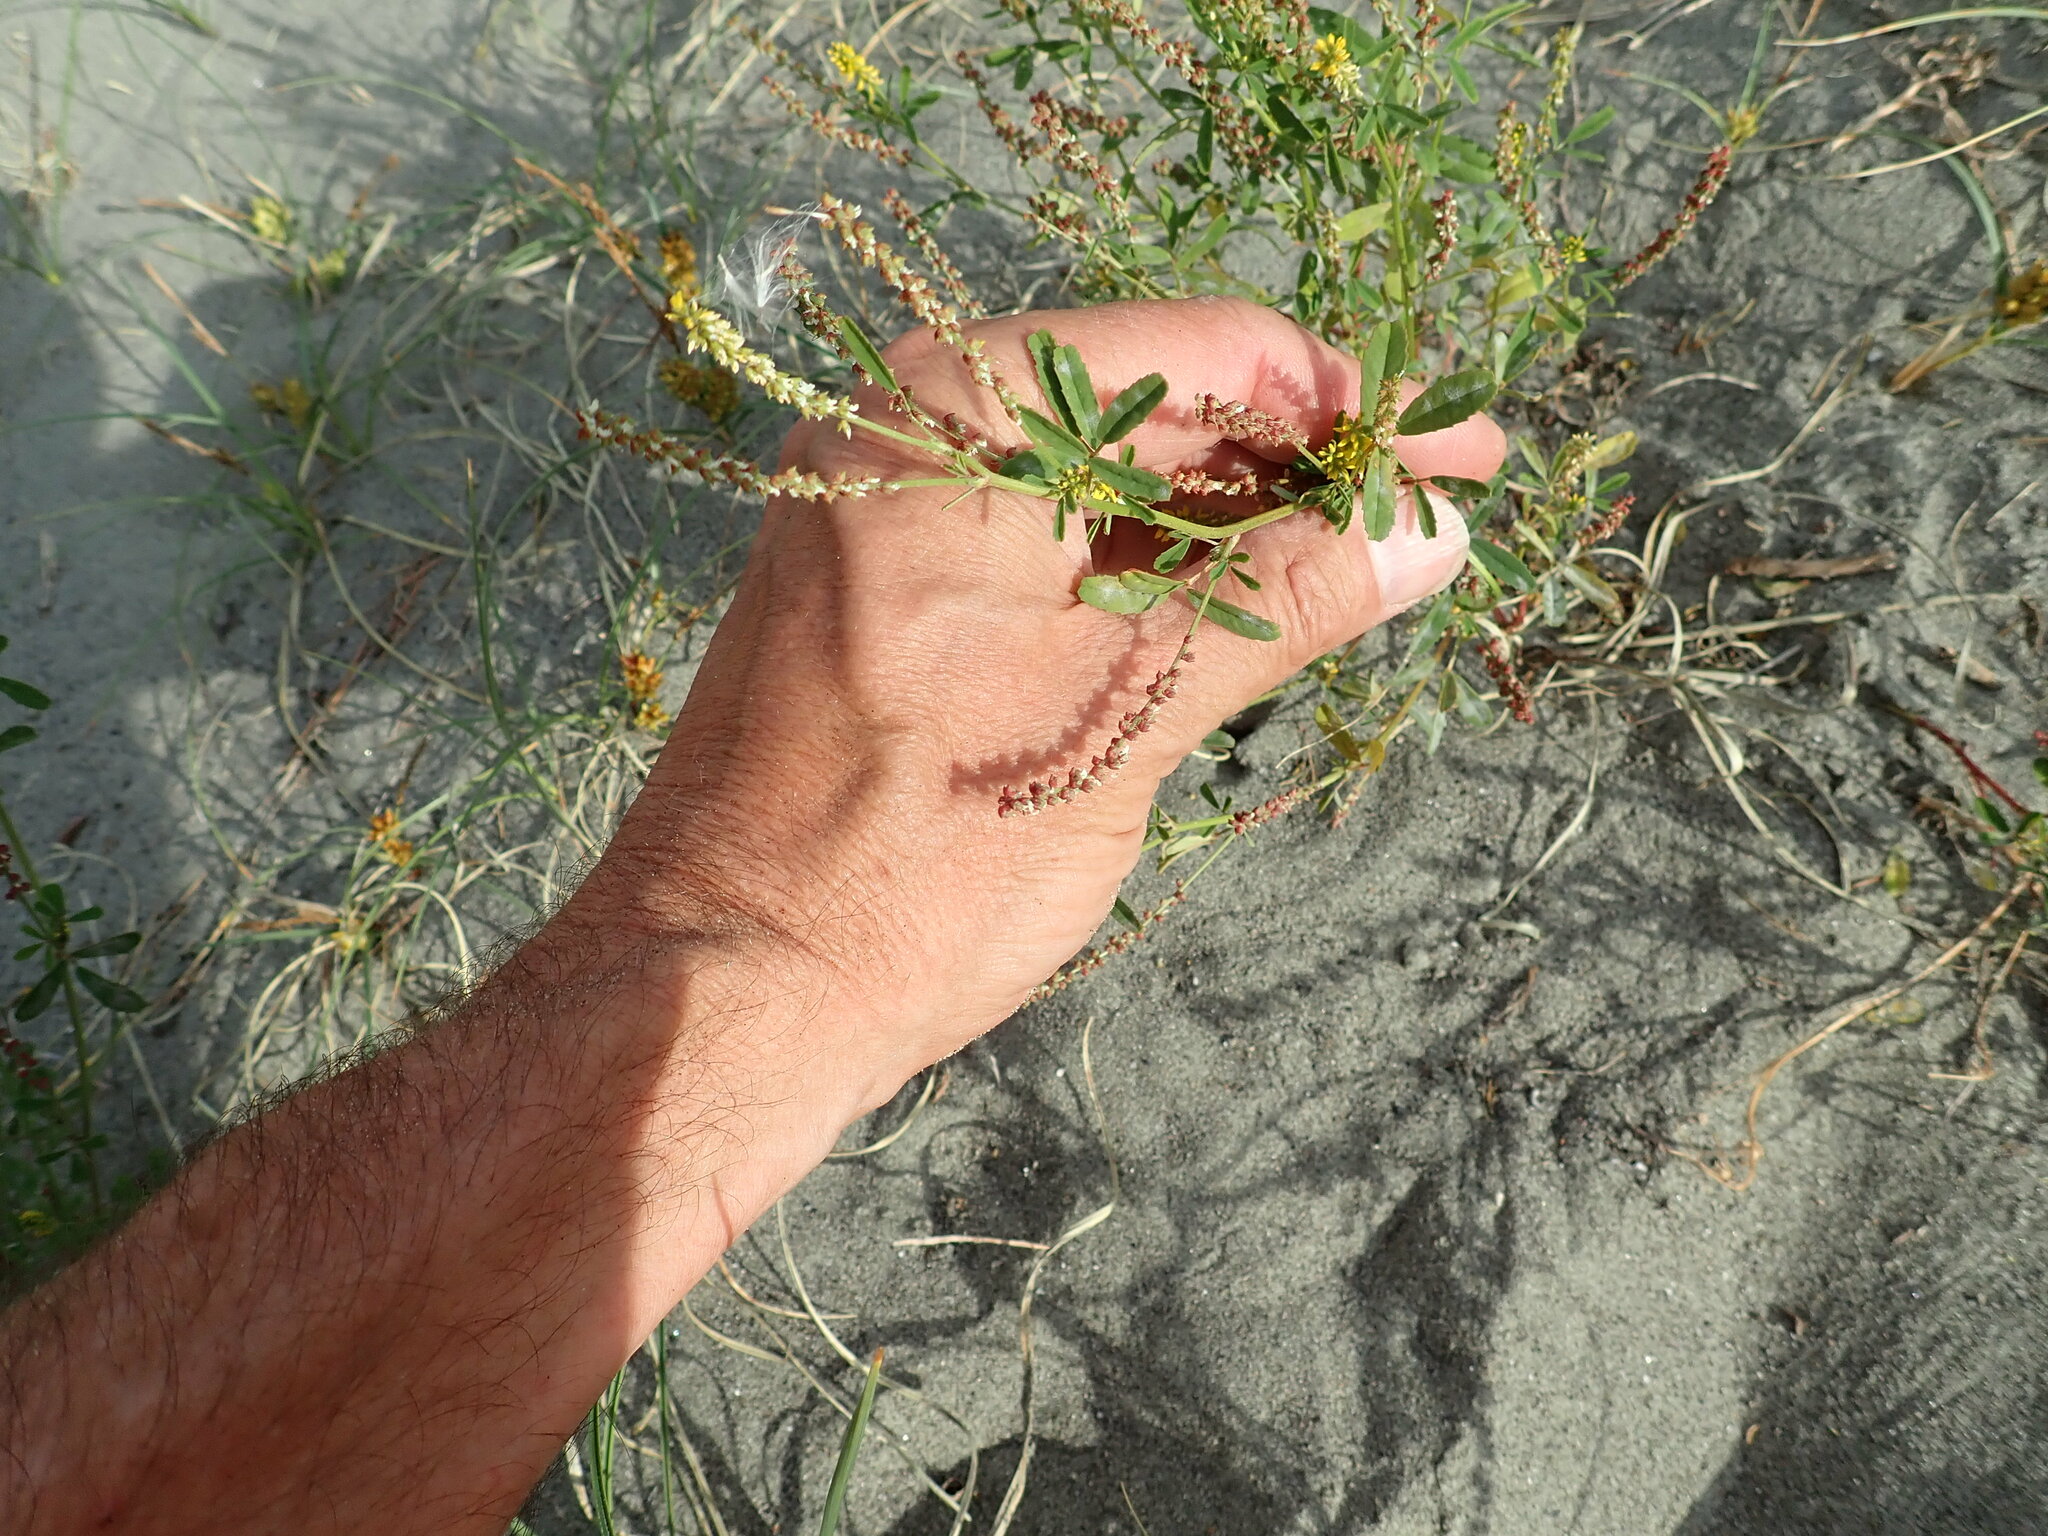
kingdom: Plantae
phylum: Tracheophyta
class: Magnoliopsida
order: Fabales
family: Fabaceae
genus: Melilotus
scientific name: Melilotus indicus
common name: Small melilot
